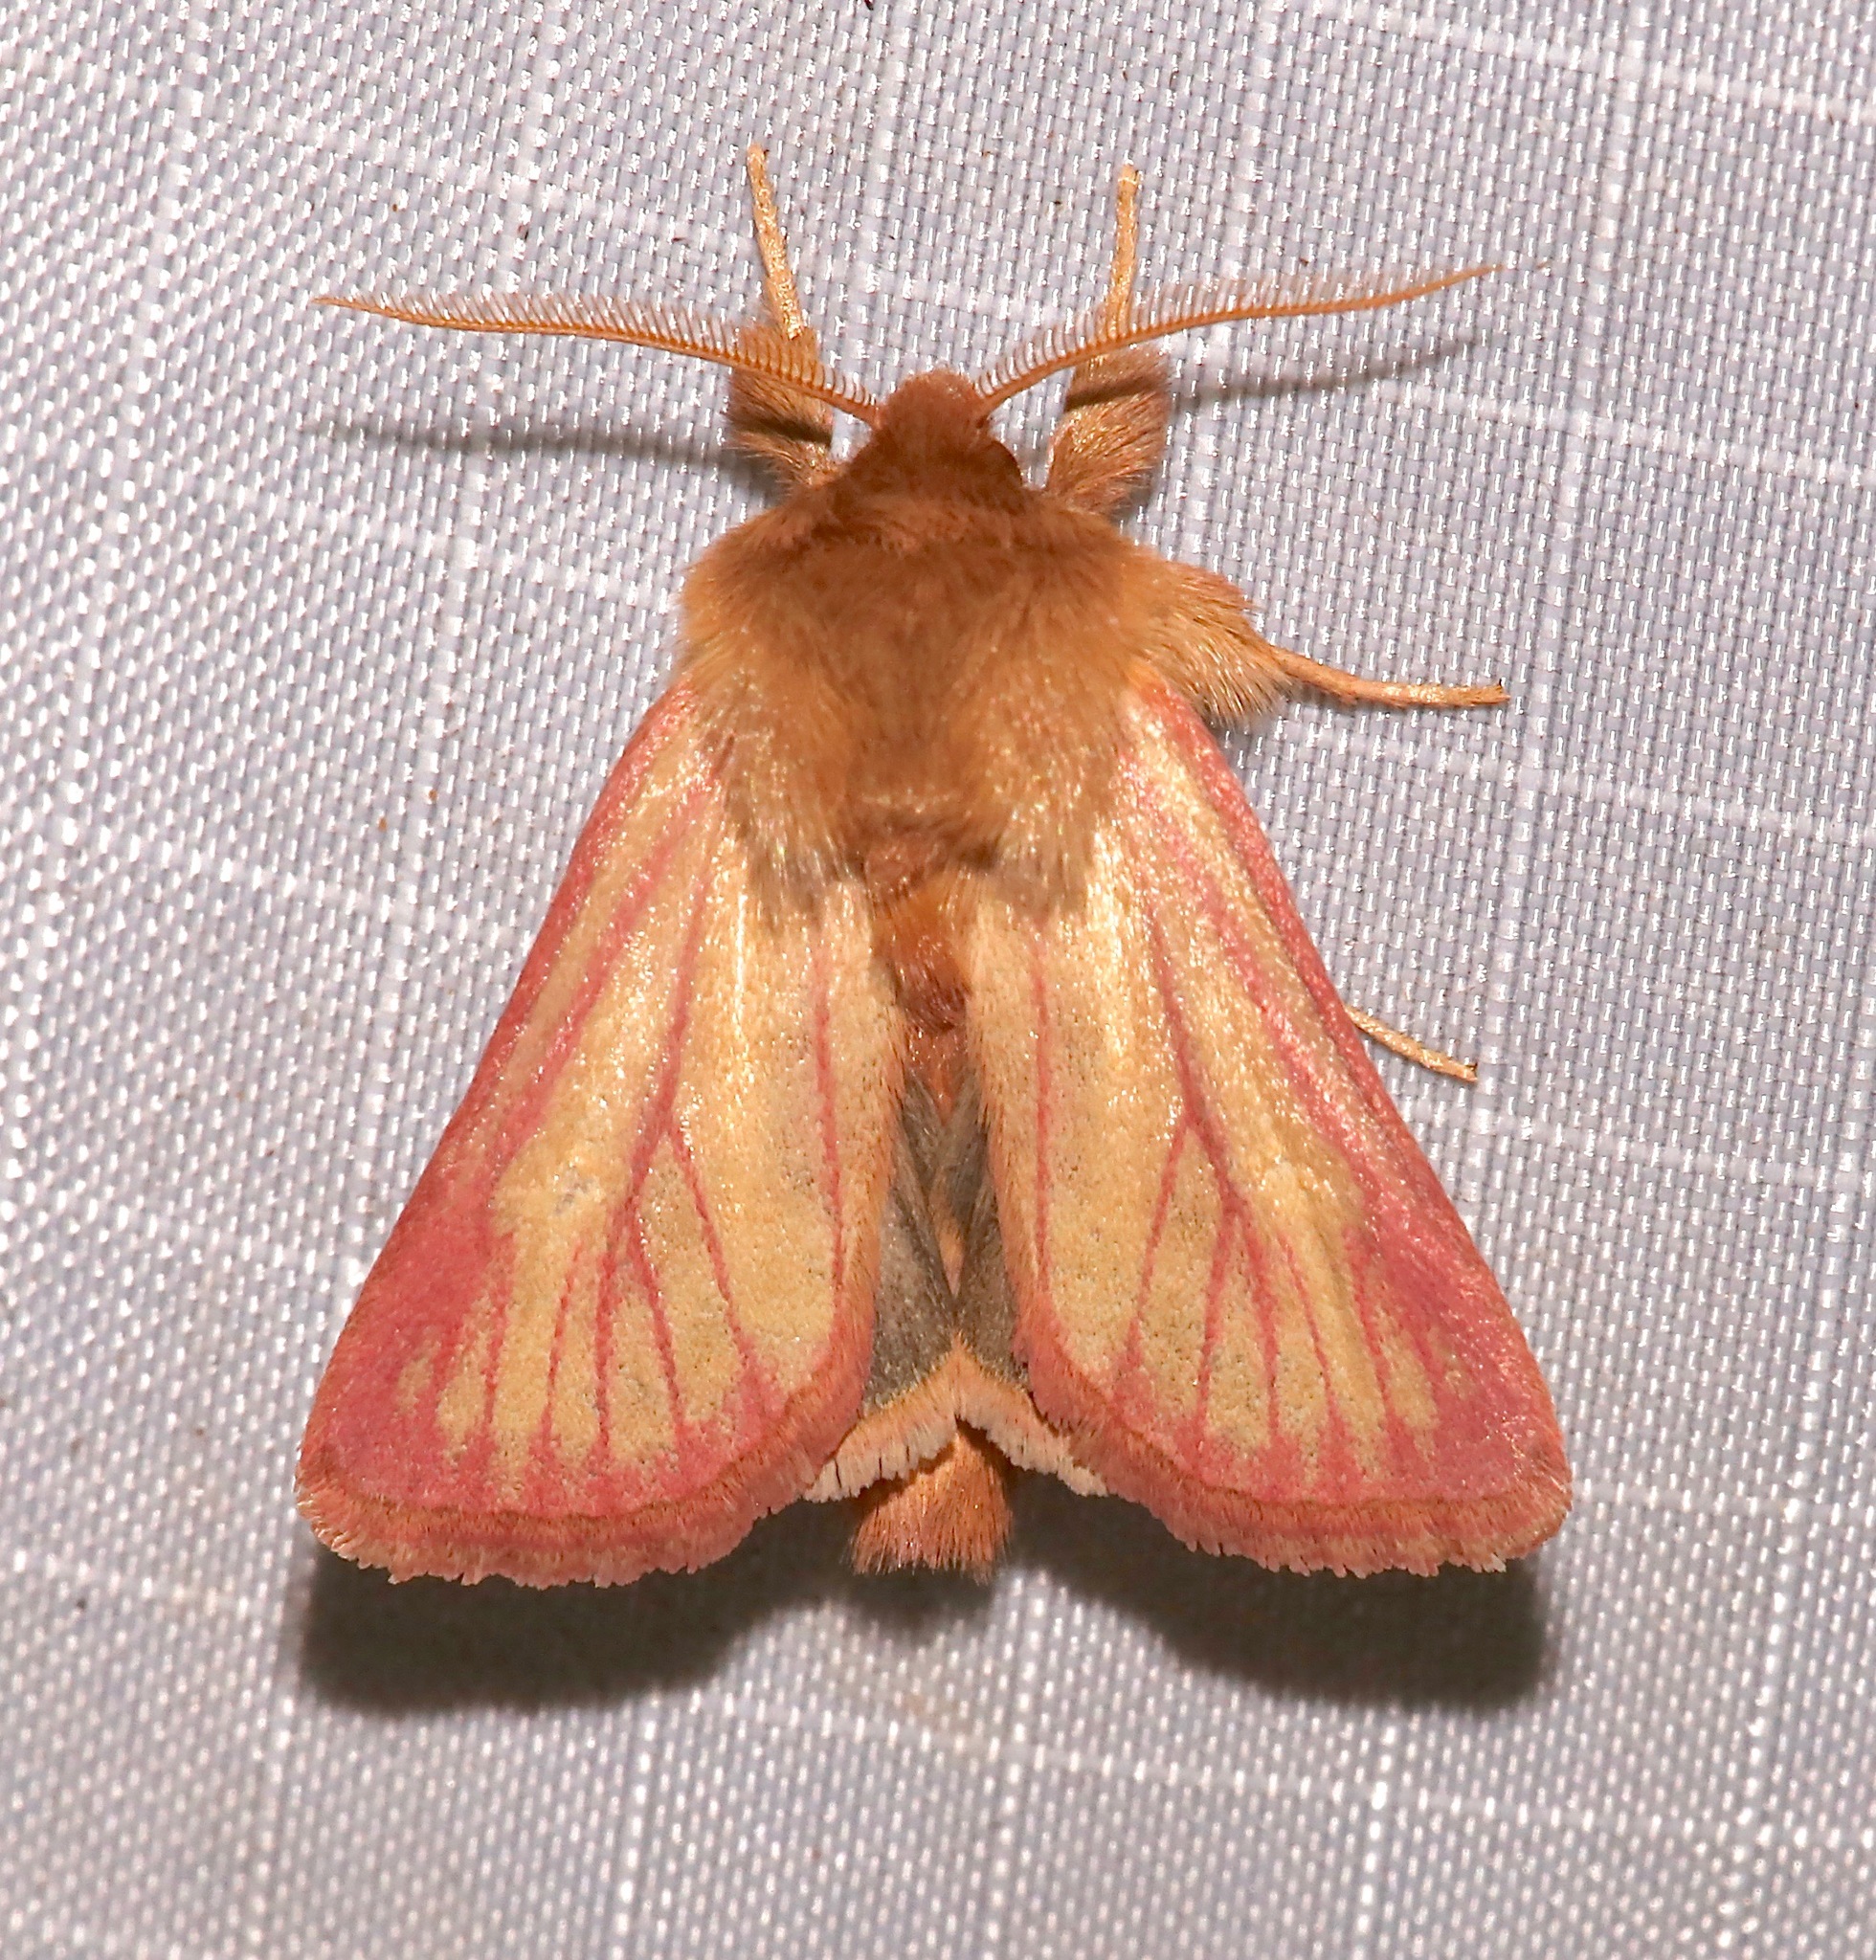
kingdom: Animalia
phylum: Arthropoda
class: Insecta
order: Lepidoptera
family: Noctuidae
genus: Nephelodes
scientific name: Nephelodes carminata
